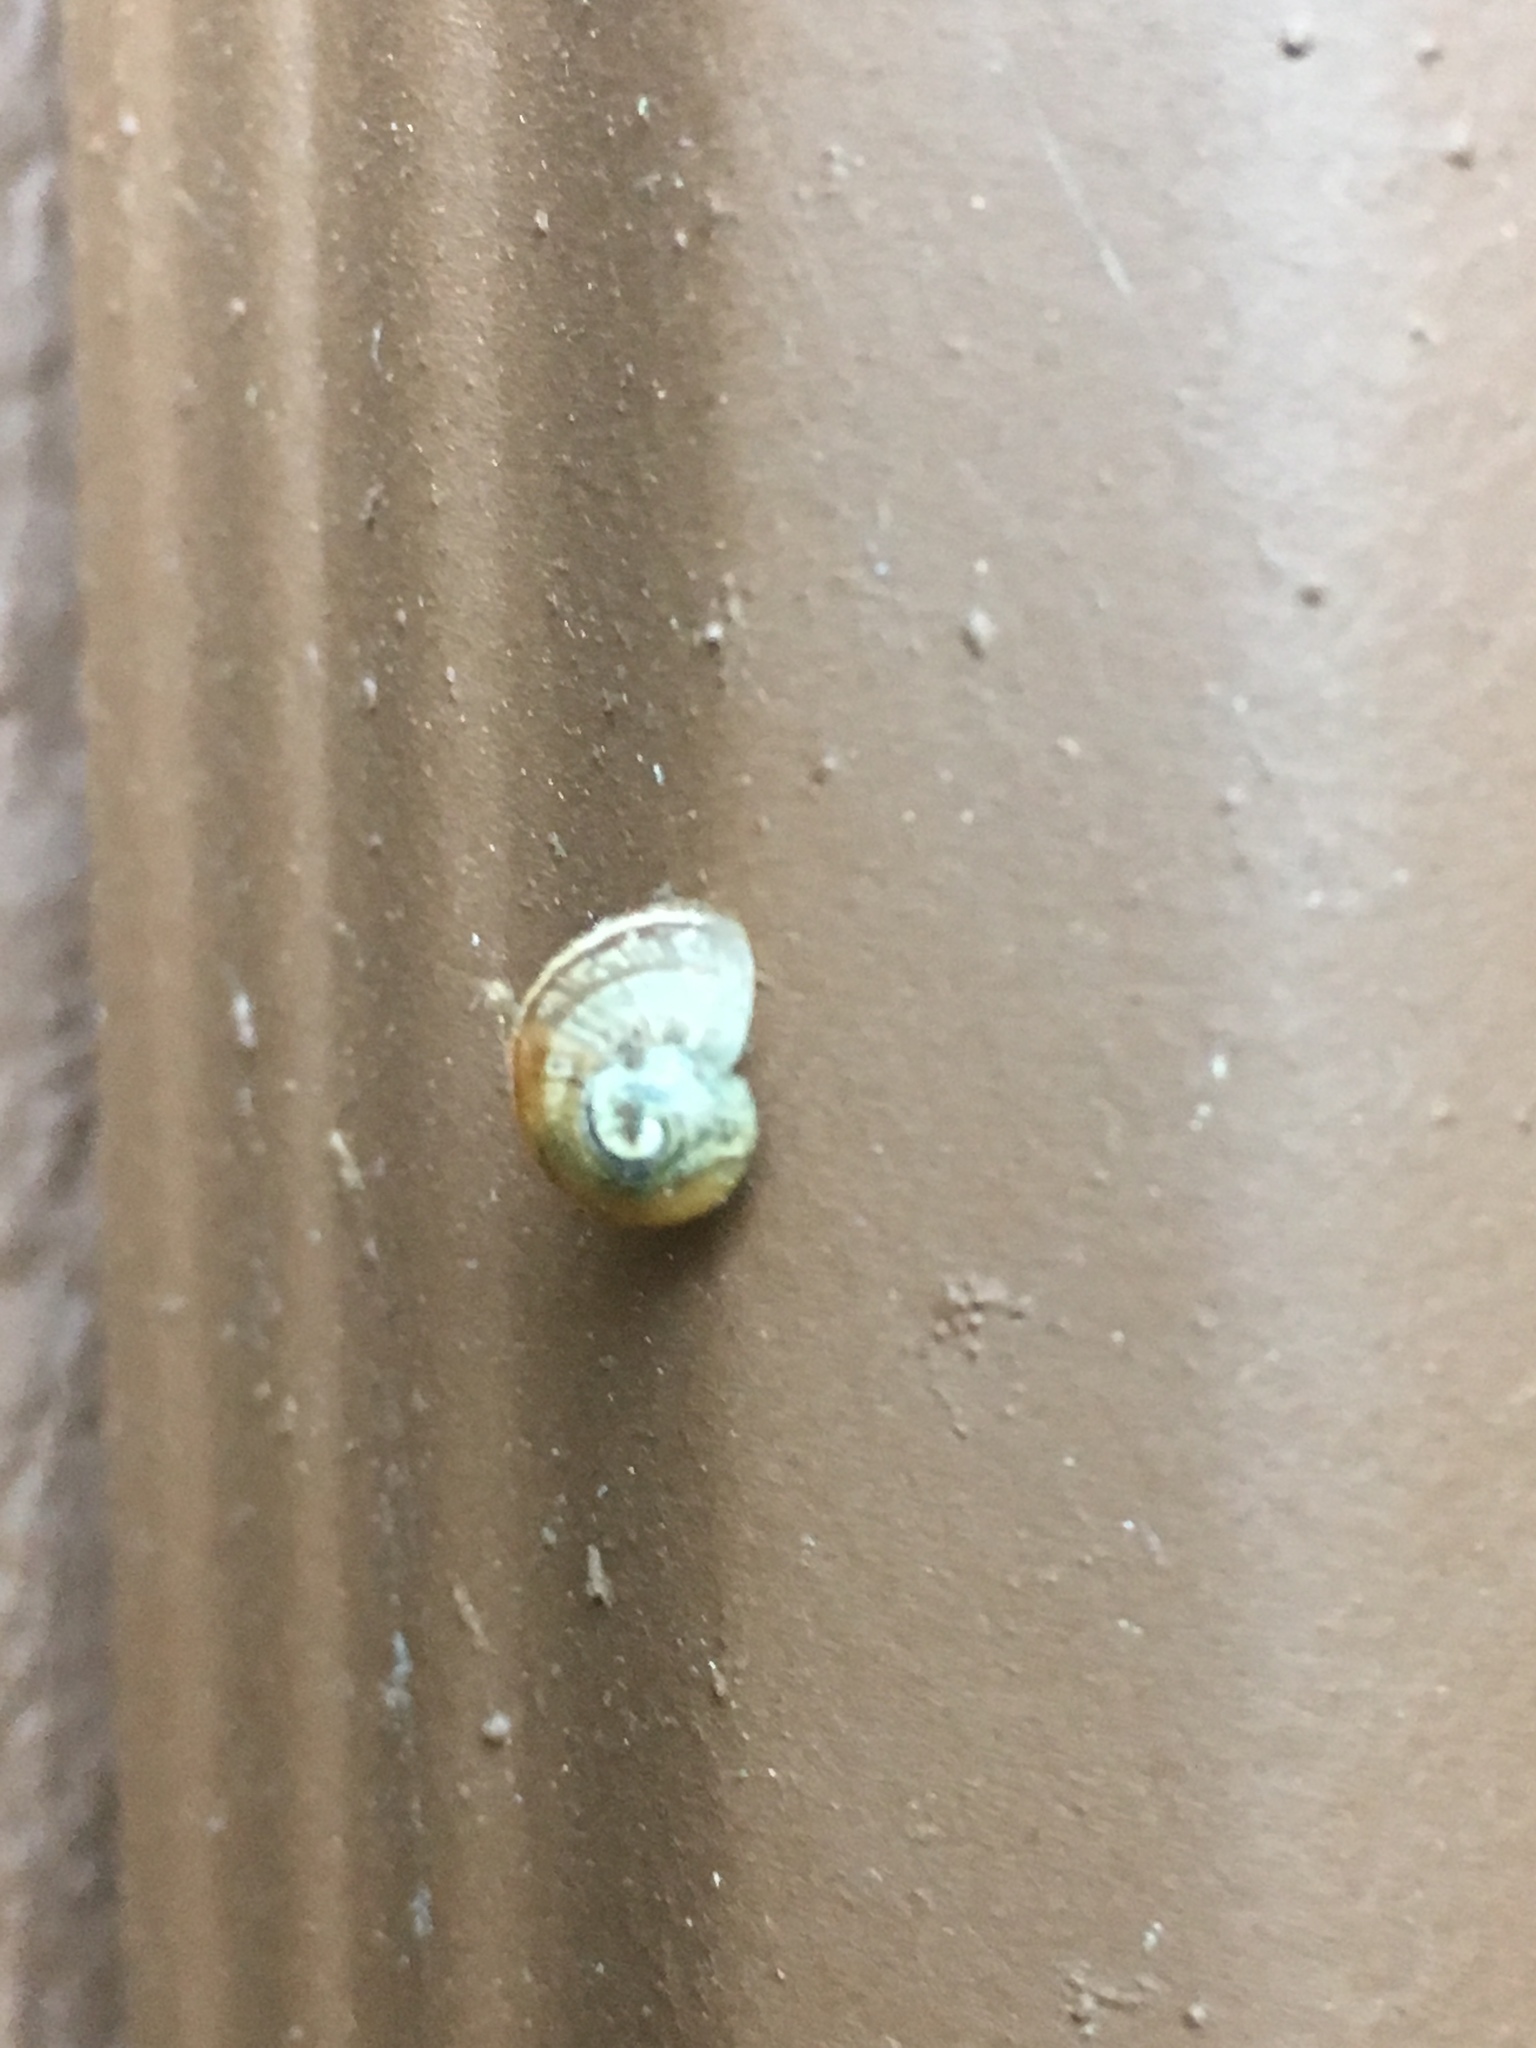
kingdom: Animalia
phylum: Mollusca
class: Gastropoda
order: Stylommatophora
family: Helicidae
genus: Cornu
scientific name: Cornu aspersum
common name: Brown garden snail
